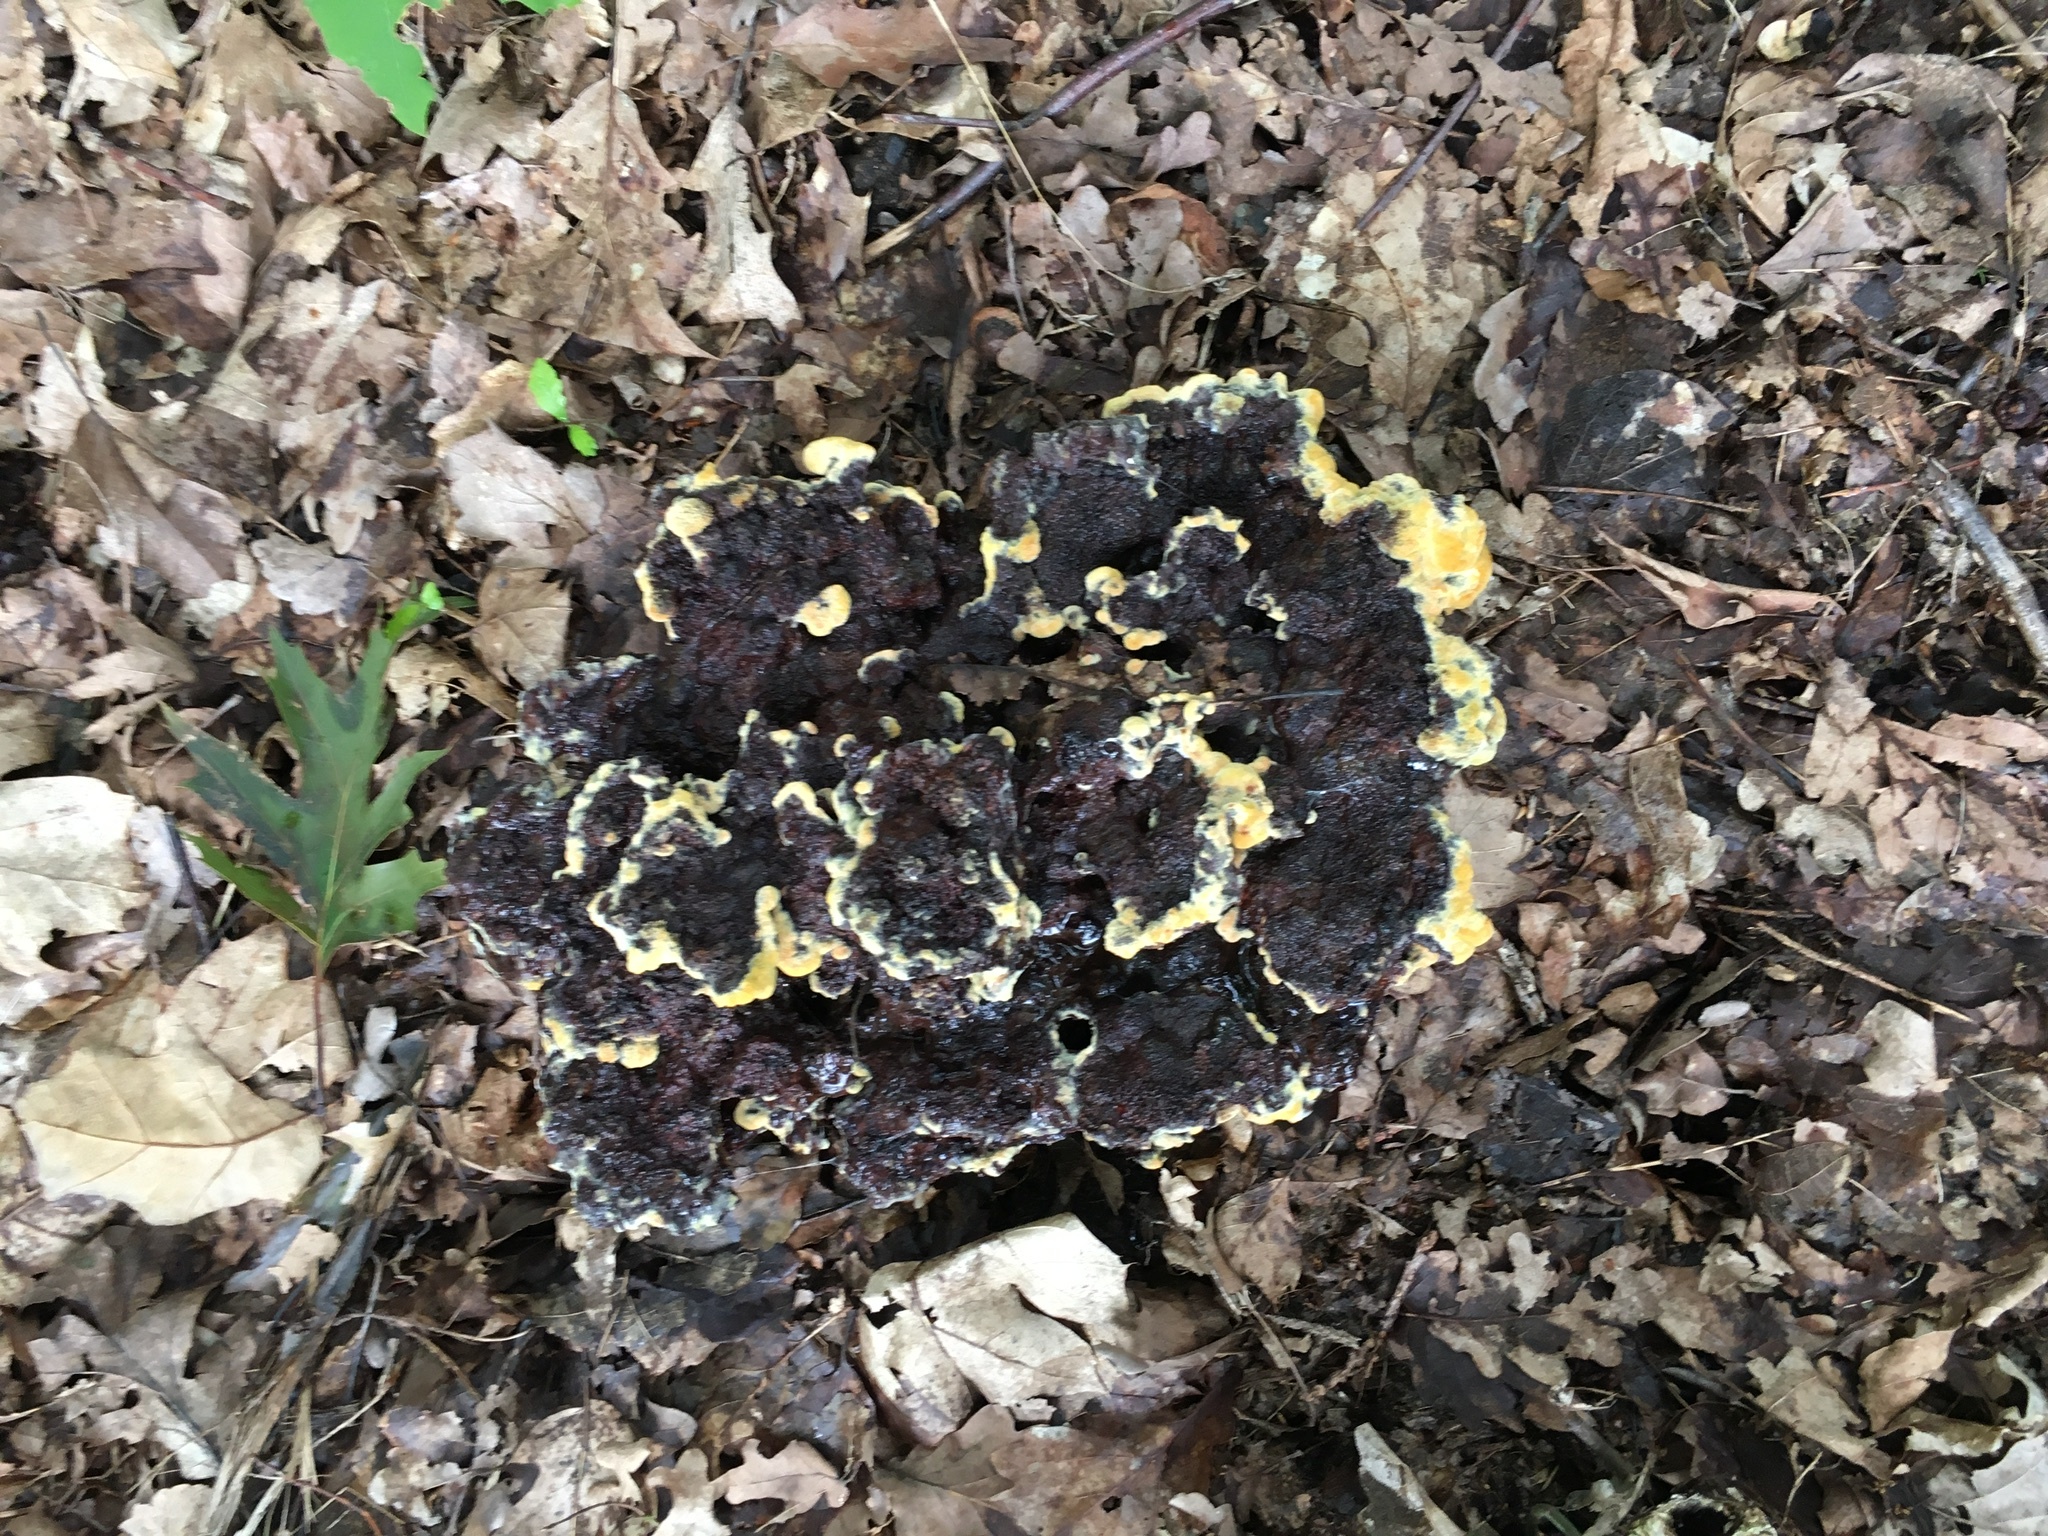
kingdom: Fungi
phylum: Basidiomycota
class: Agaricomycetes
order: Polyporales
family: Laetiporaceae
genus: Phaeolus
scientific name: Phaeolus schweinitzii
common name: Dyer's mazegill
